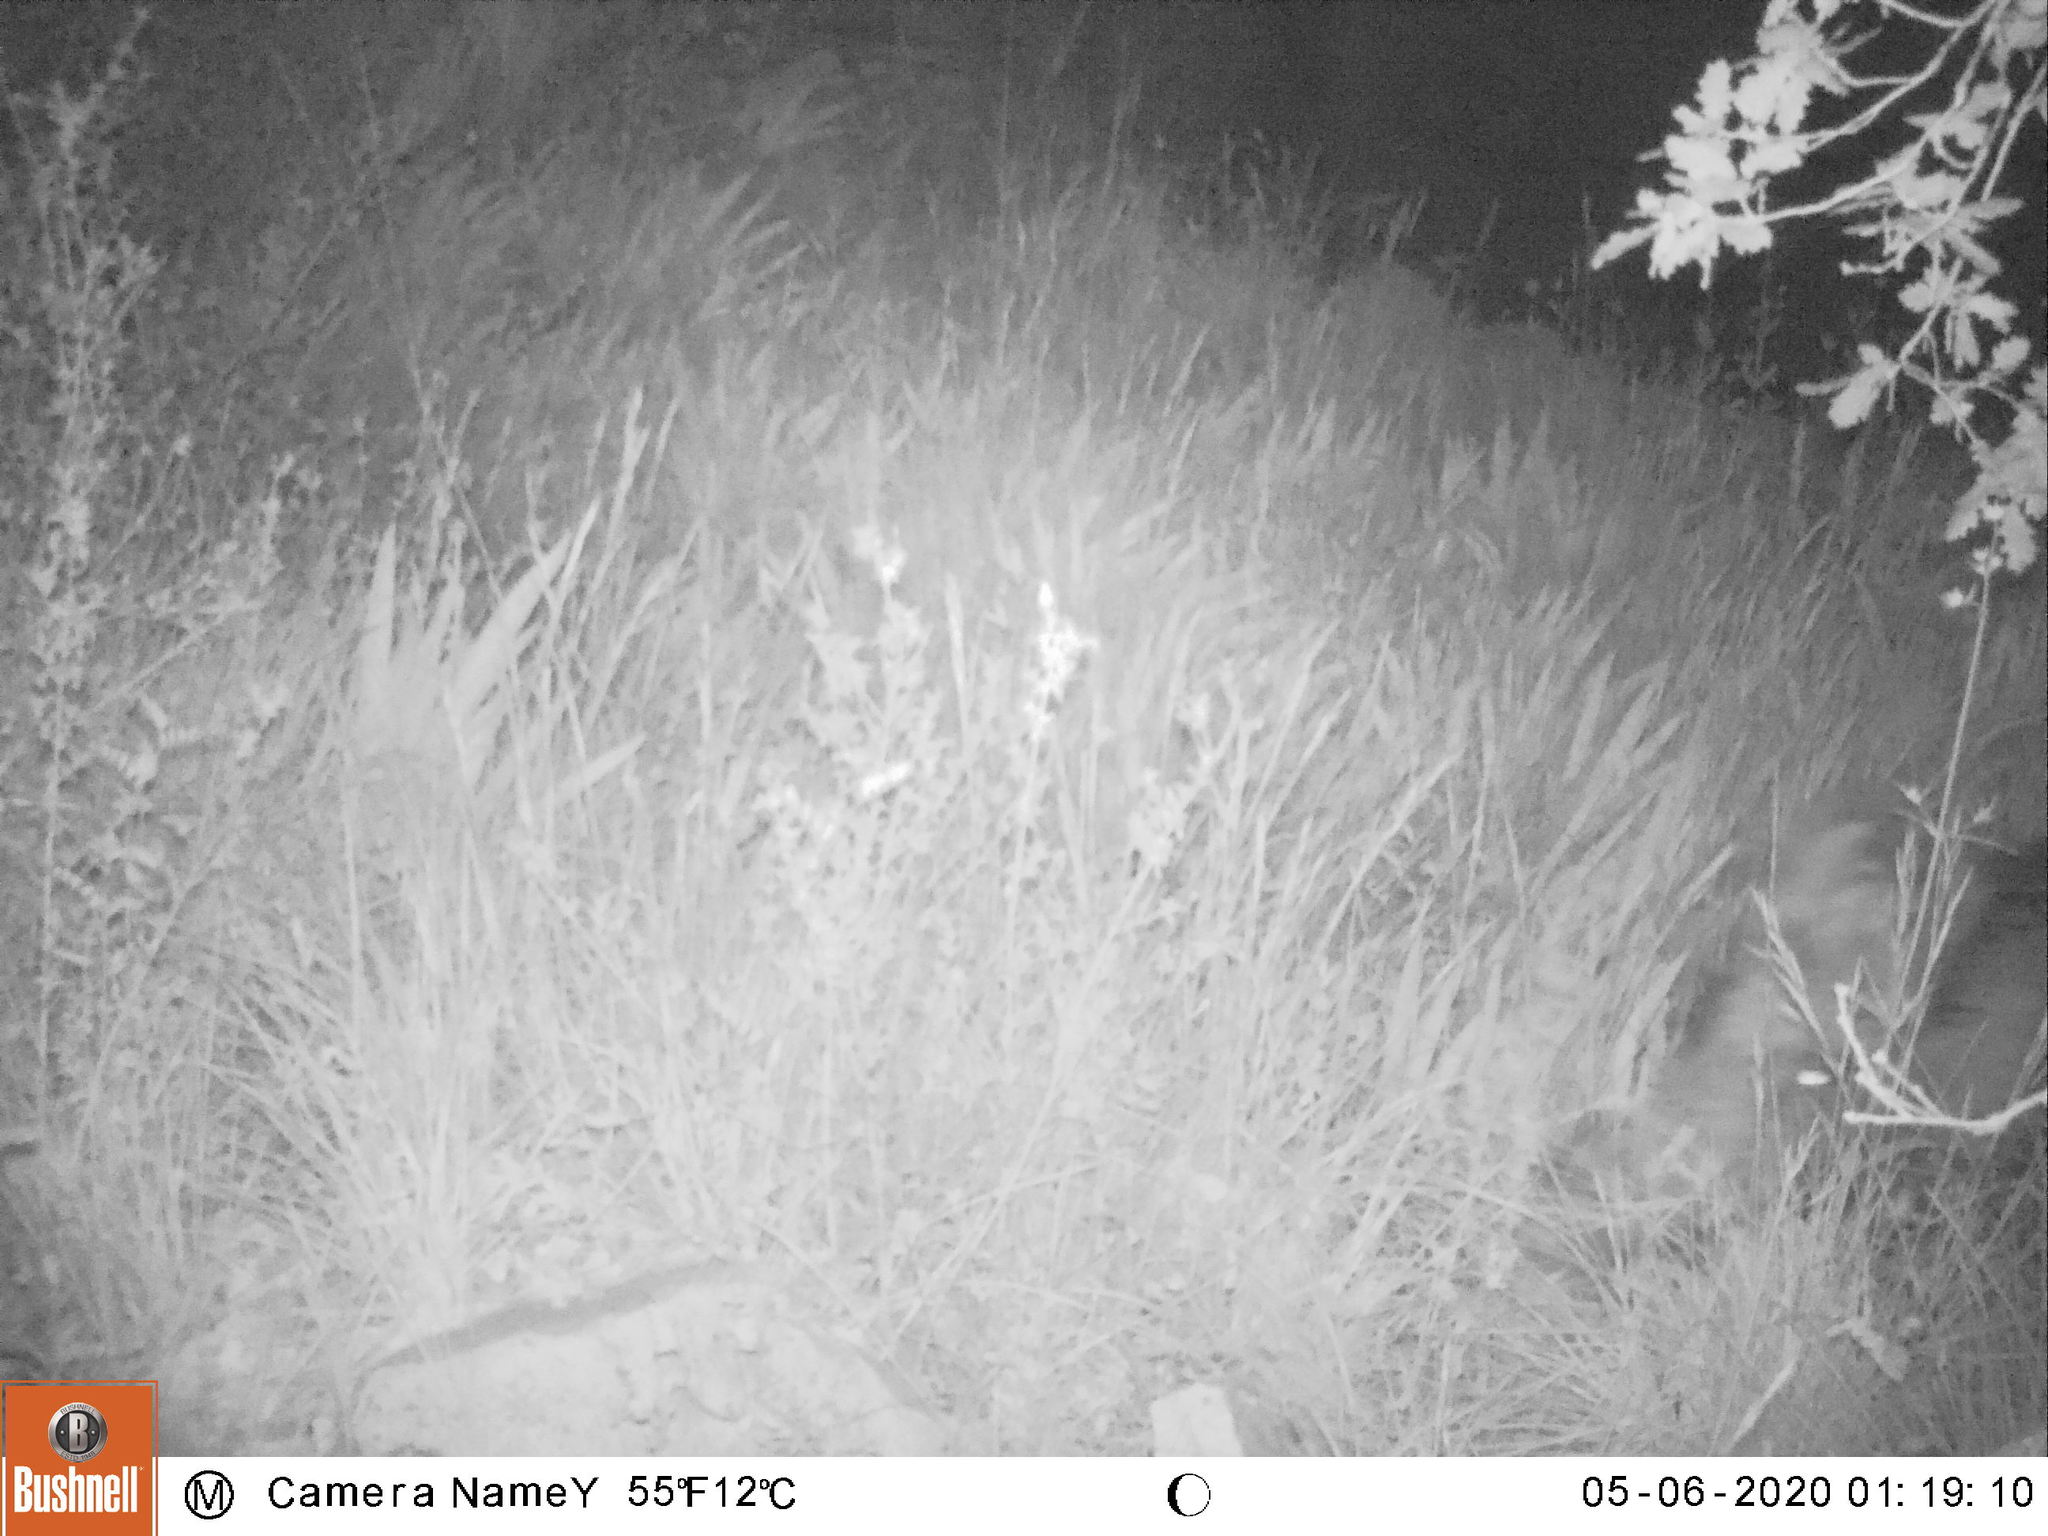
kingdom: Animalia
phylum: Chordata
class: Mammalia
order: Artiodactyla
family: Suidae
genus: Sus
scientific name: Sus scrofa
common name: Wild boar
